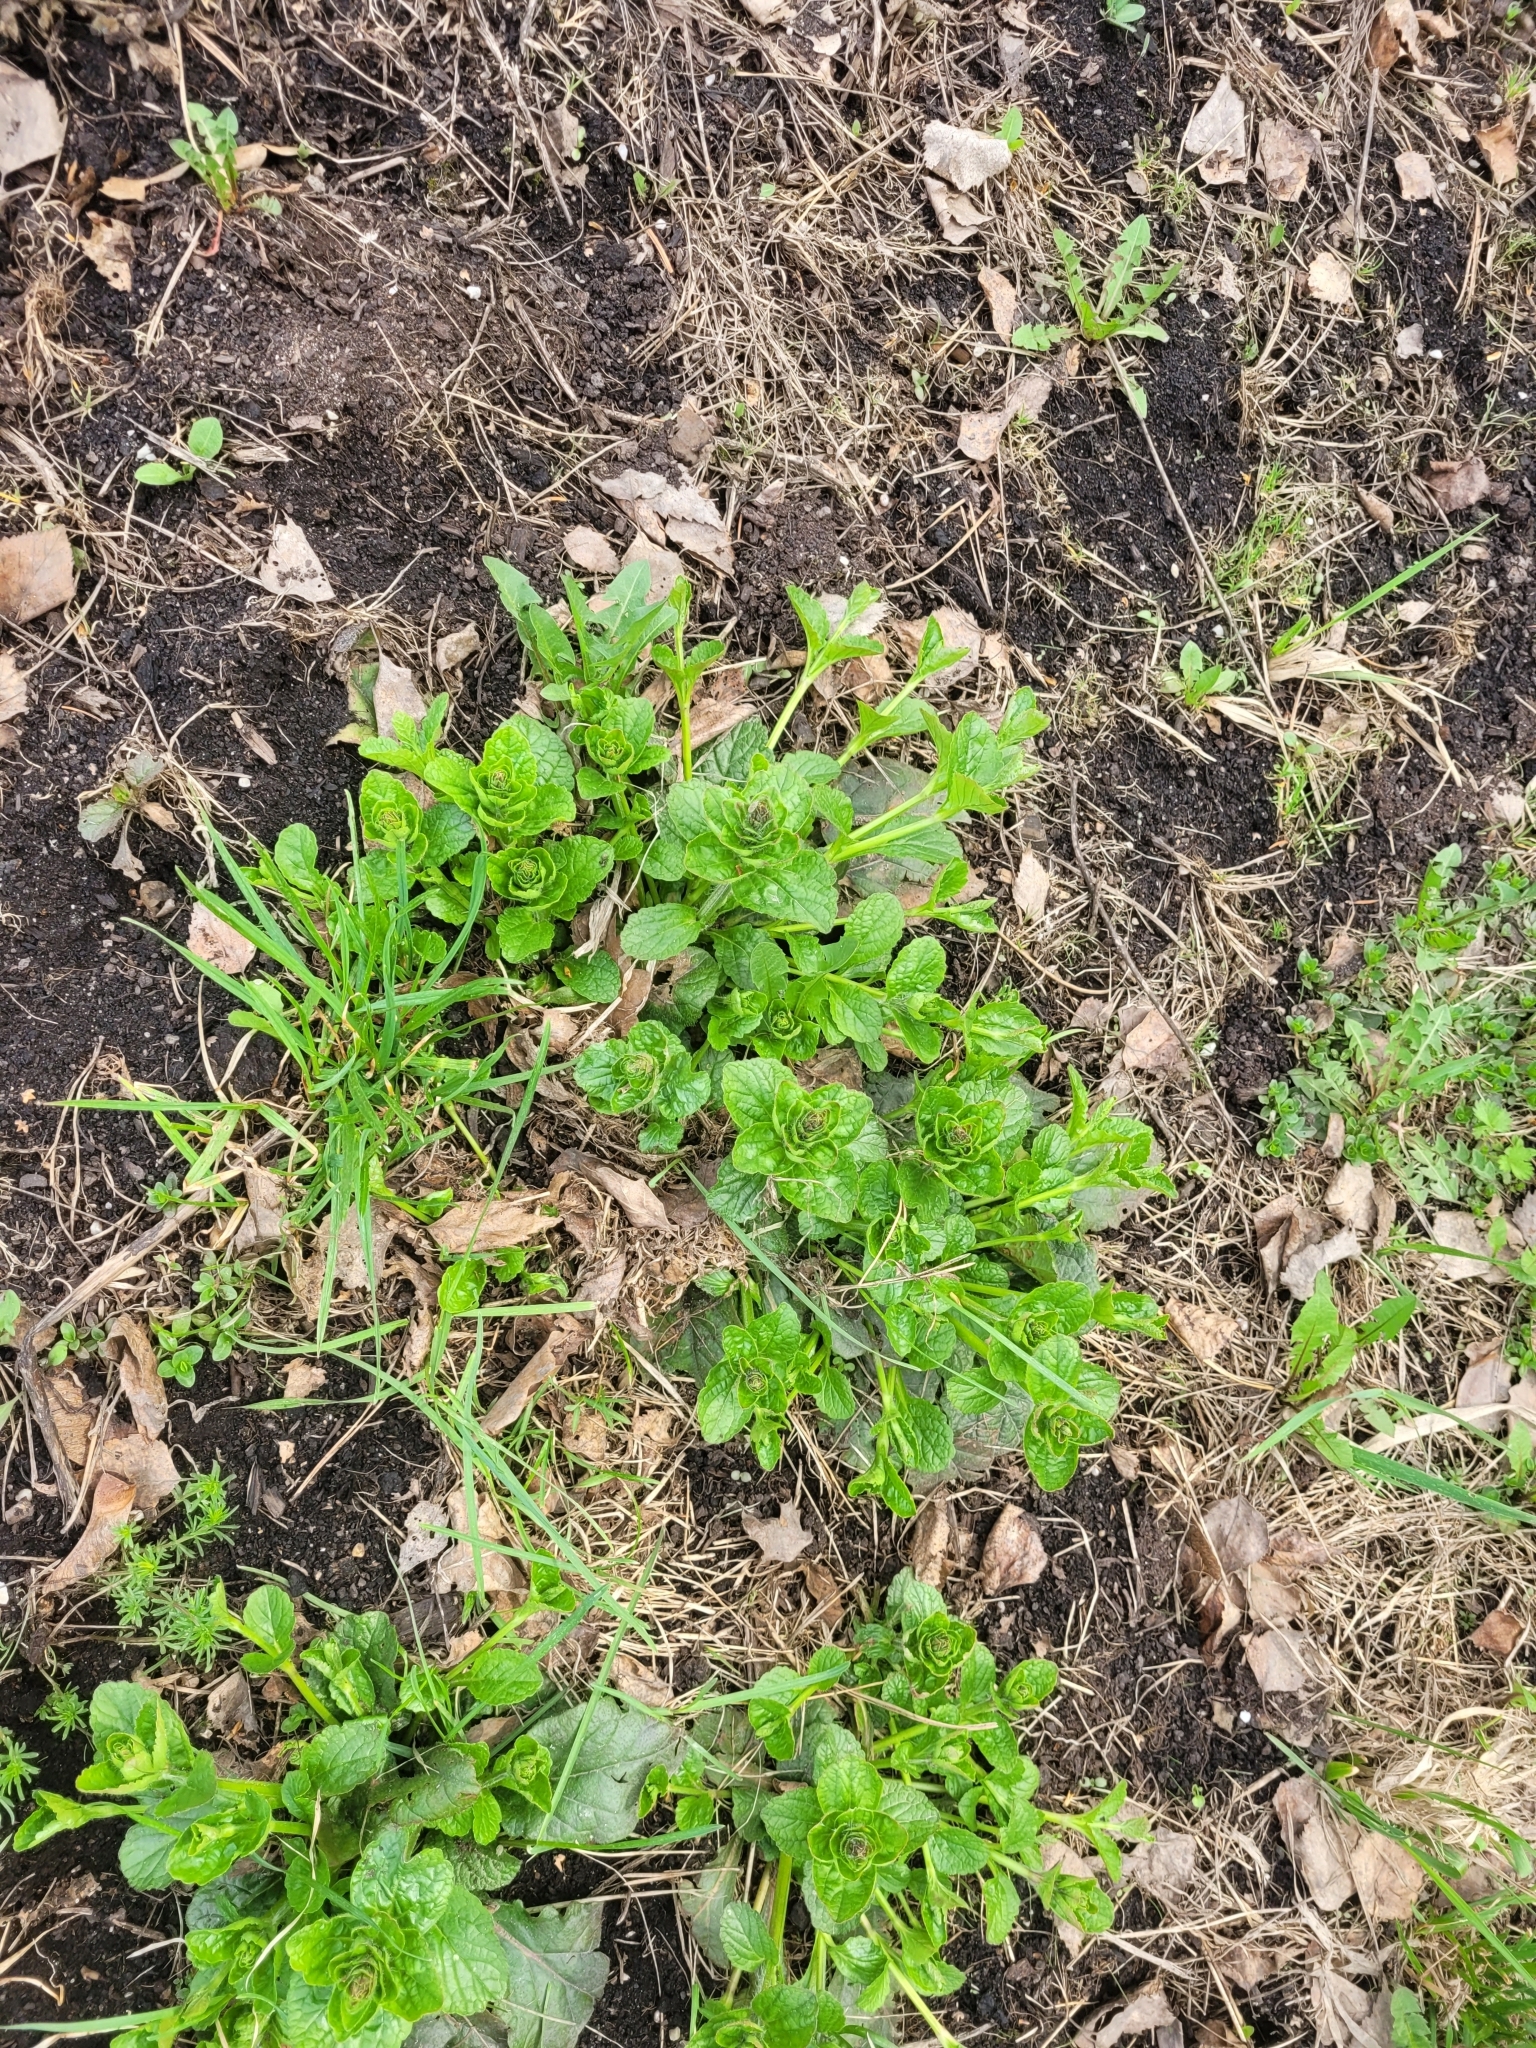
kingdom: Plantae
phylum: Tracheophyta
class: Magnoliopsida
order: Lamiales
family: Lamiaceae
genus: Ajuga
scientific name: Ajuga reptans
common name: Bugle
